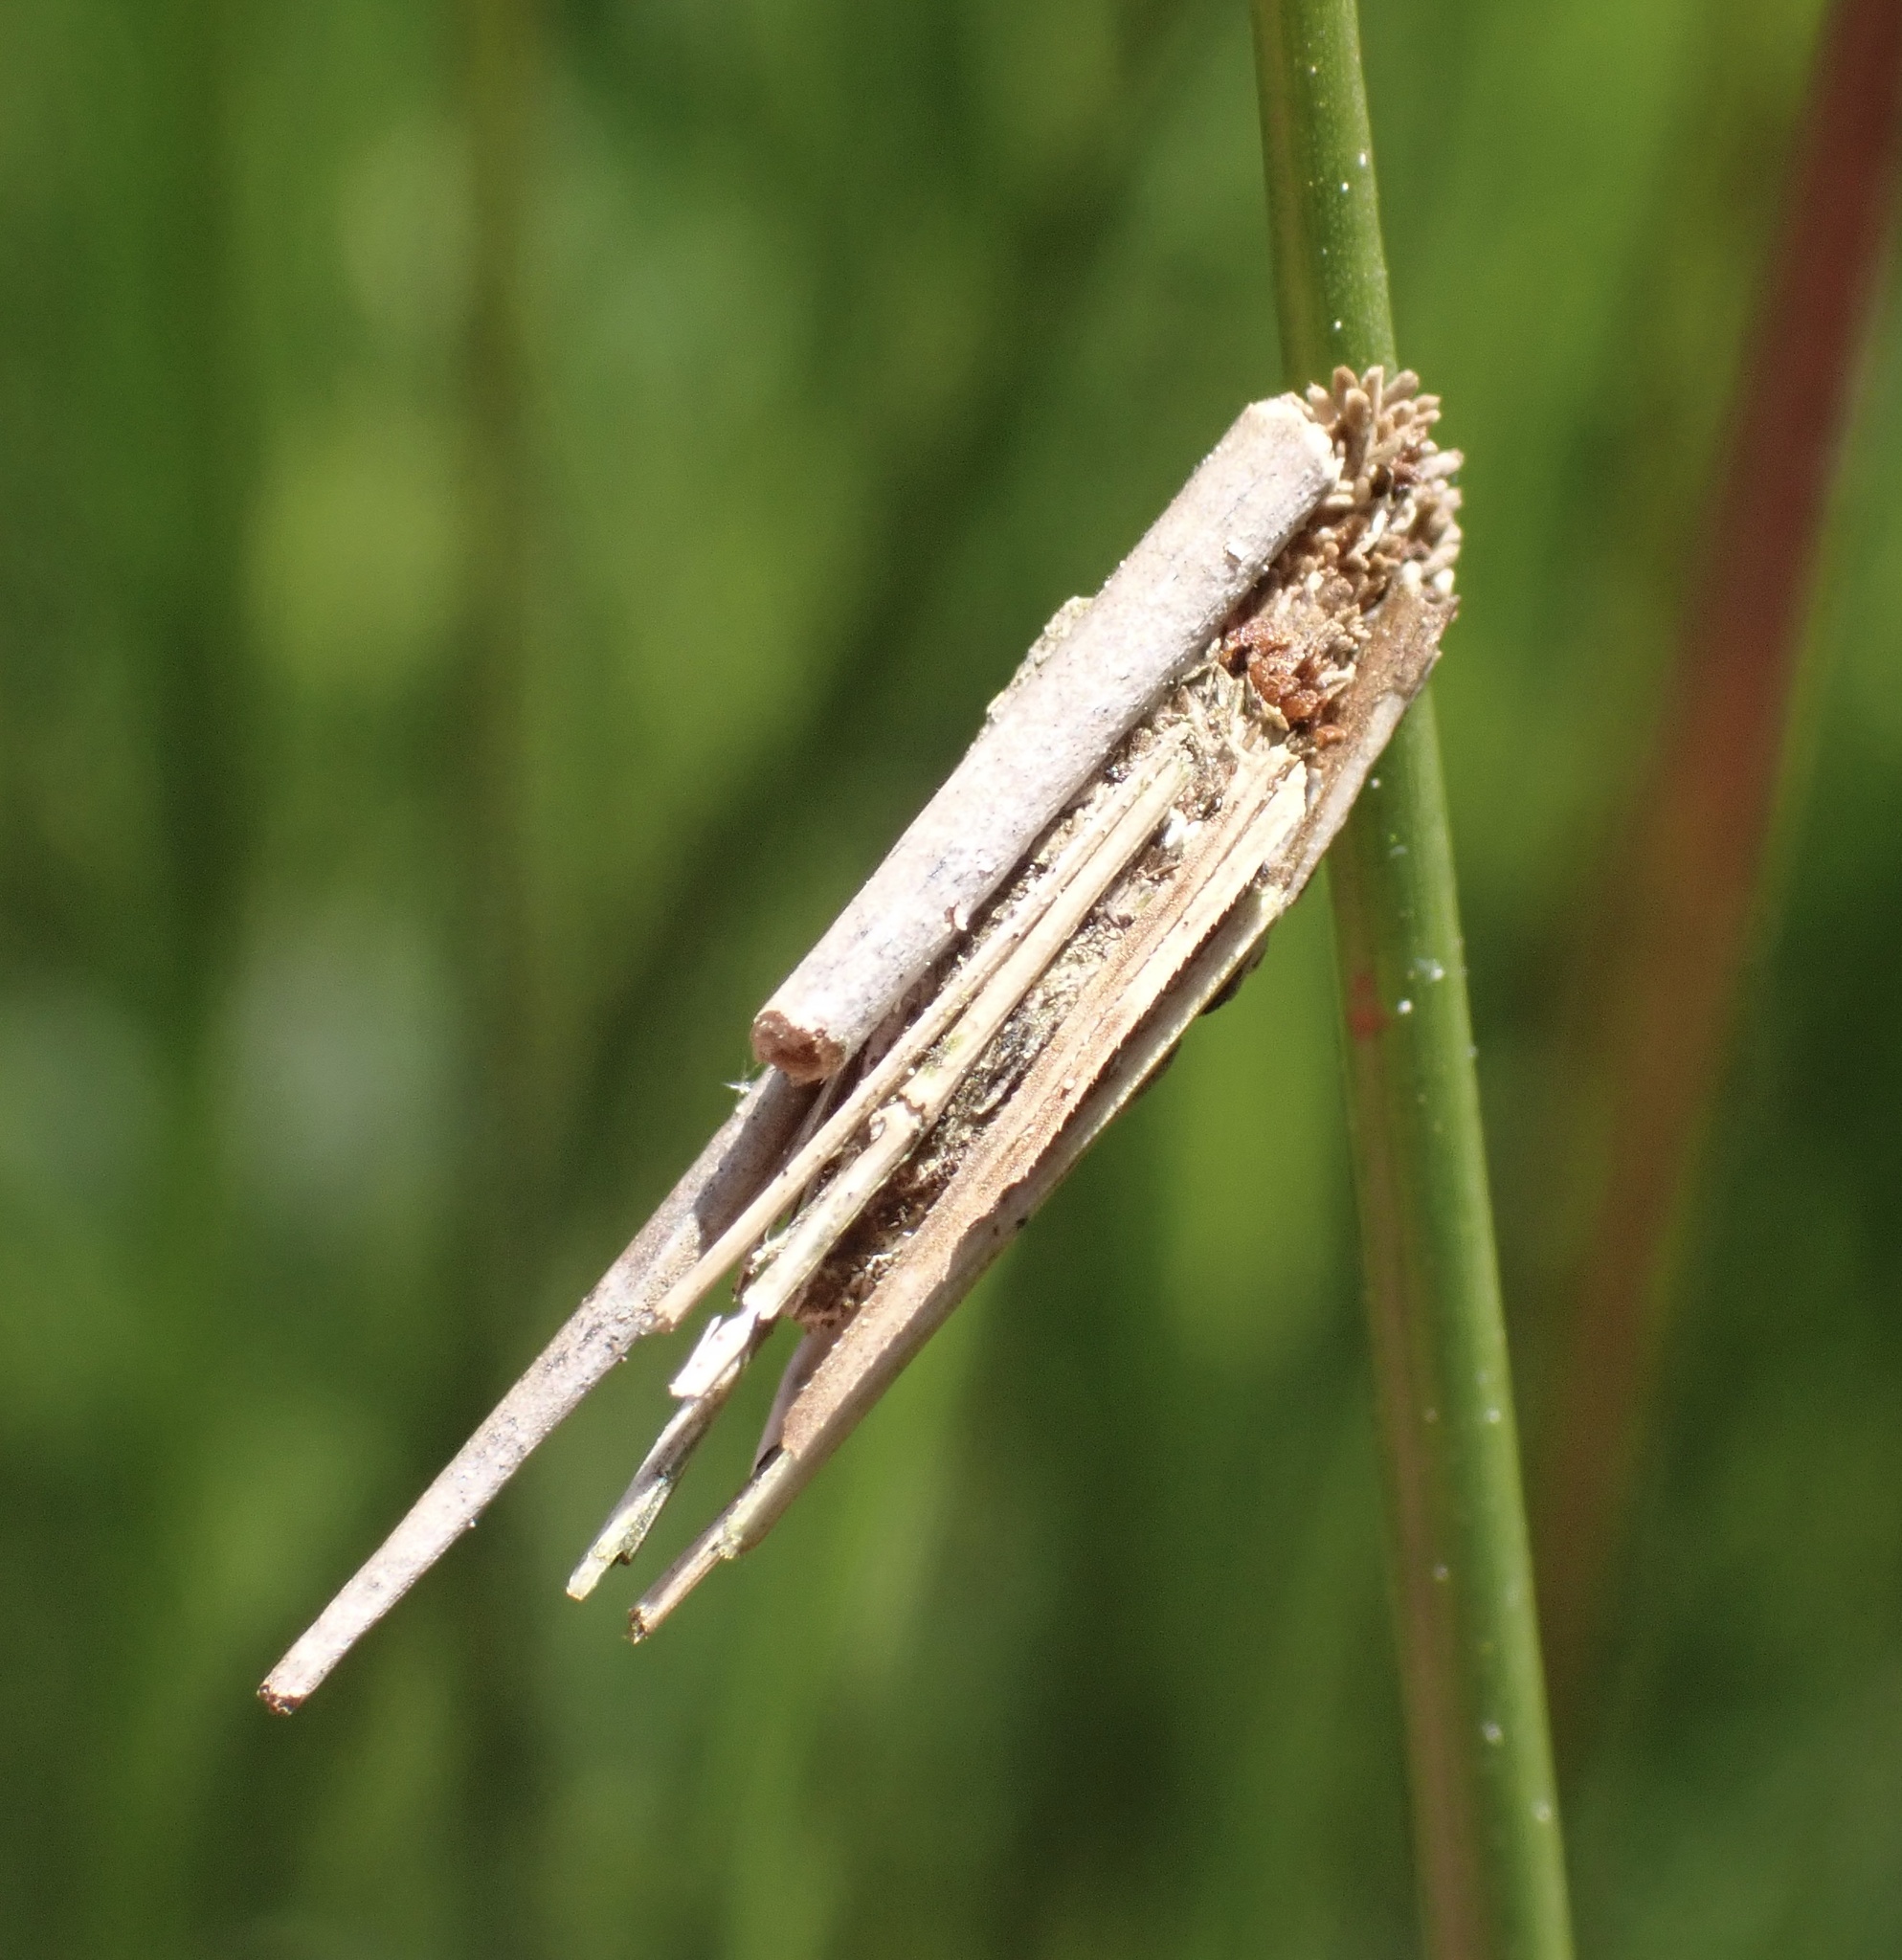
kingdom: Animalia
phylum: Arthropoda
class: Insecta
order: Lepidoptera
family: Psychidae
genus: Psyche
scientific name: Psyche casta
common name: Common sweep
